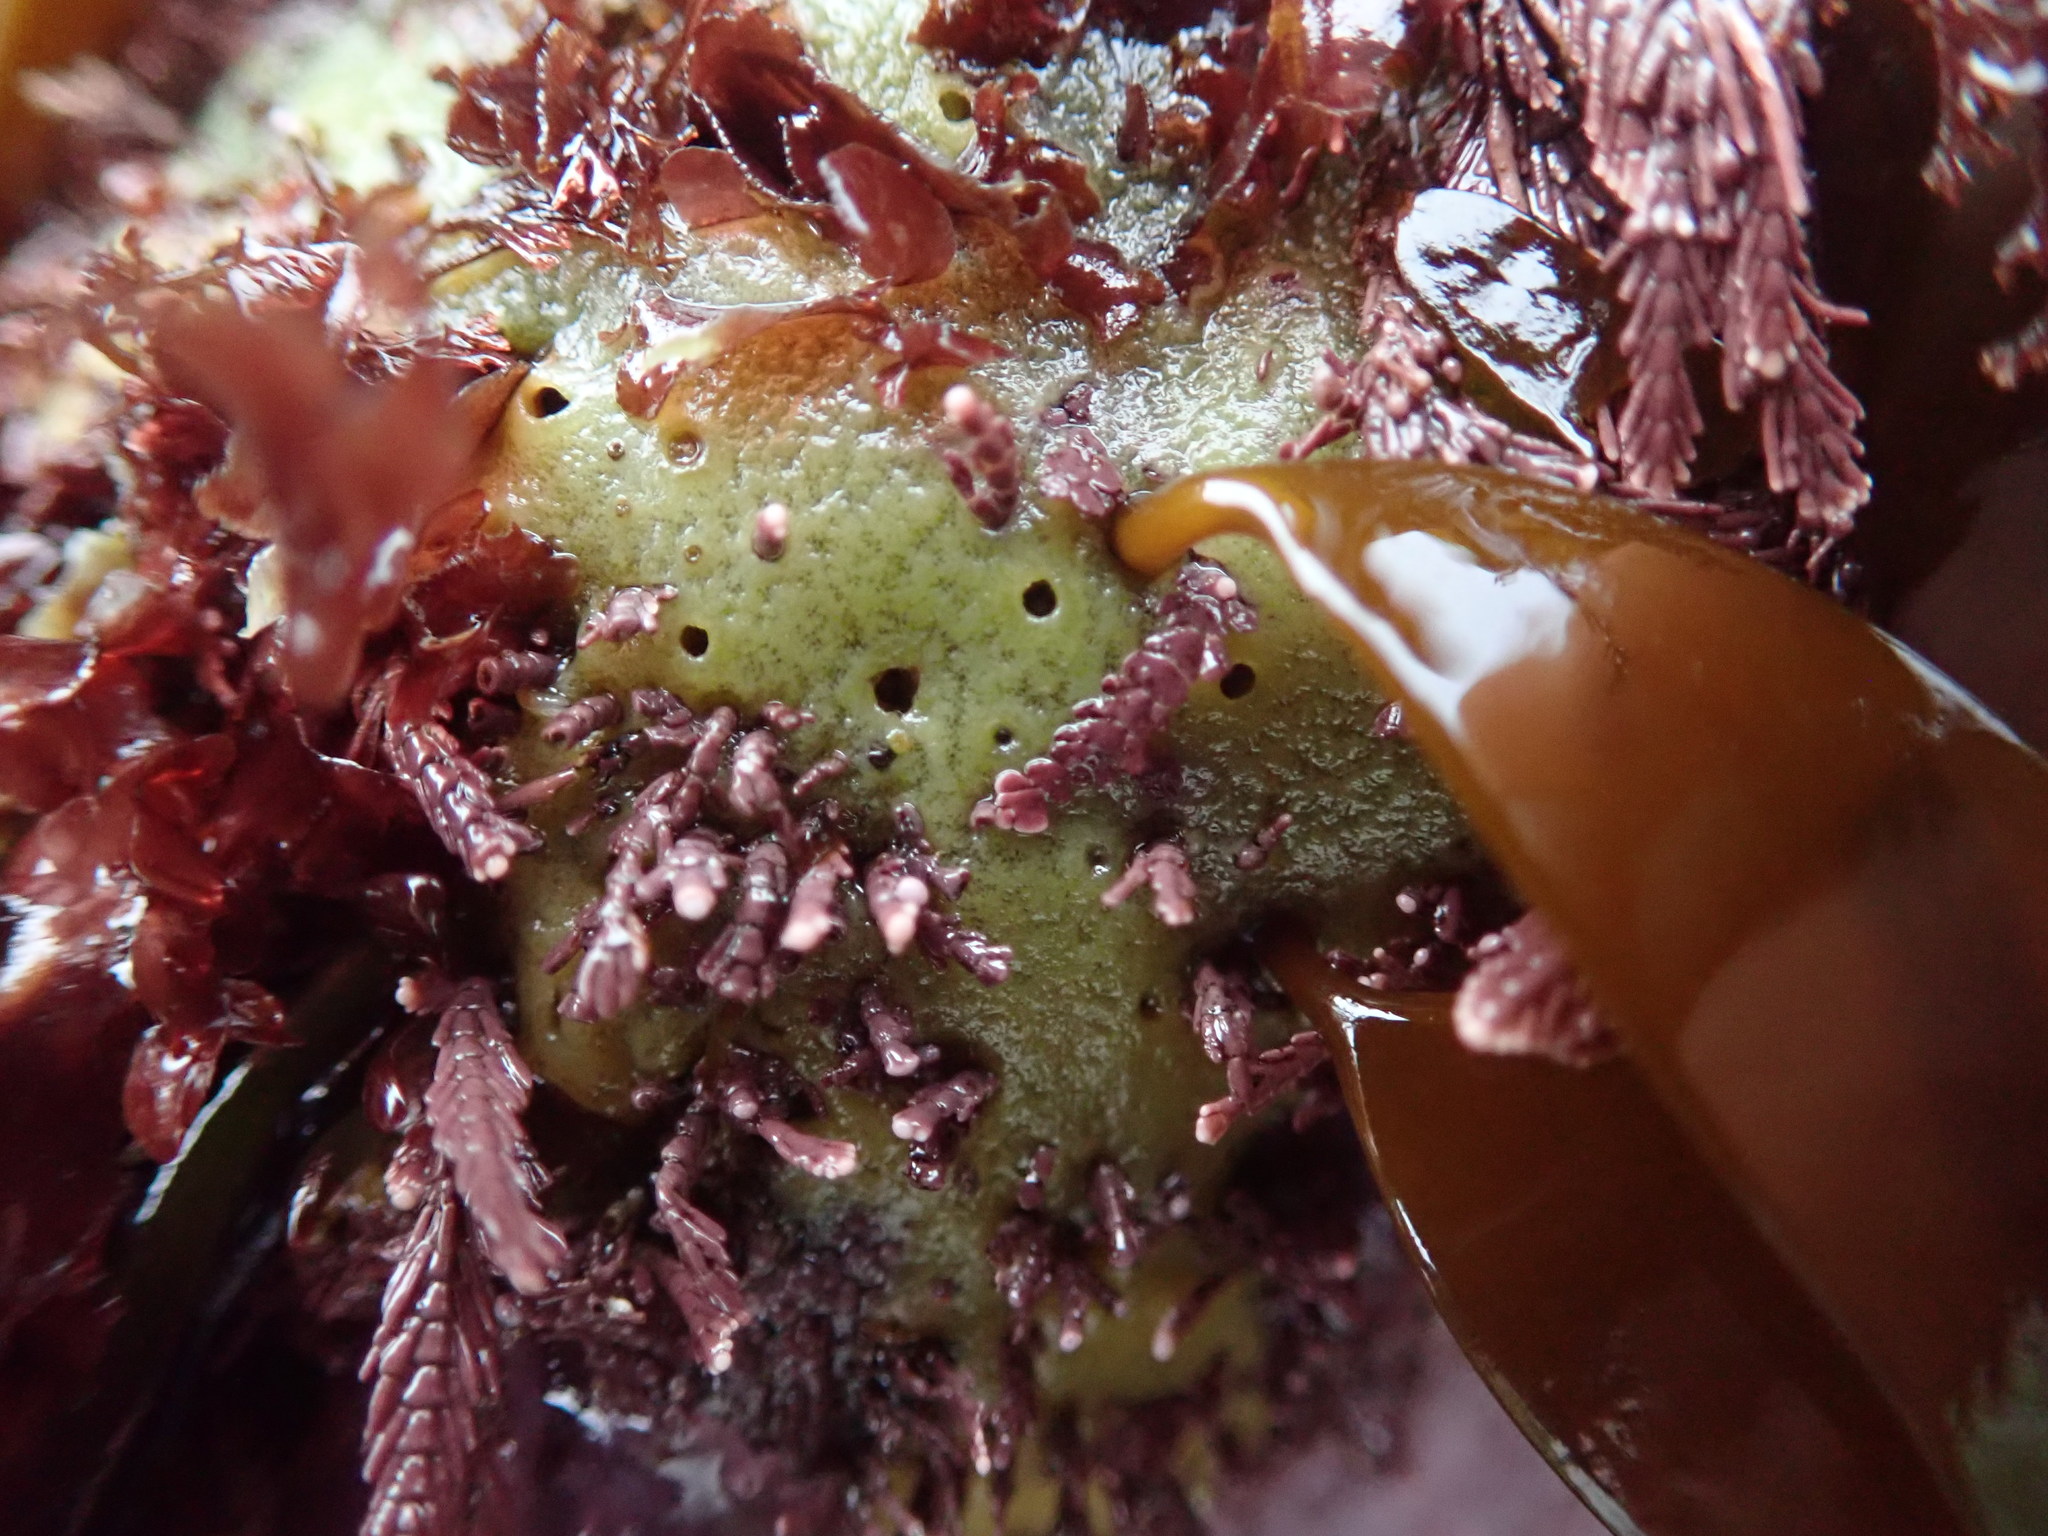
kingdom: Animalia
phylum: Porifera
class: Demospongiae
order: Suberitida
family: Halichondriidae
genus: Halichondria
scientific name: Halichondria panicea
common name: Breadcrumb sponge
